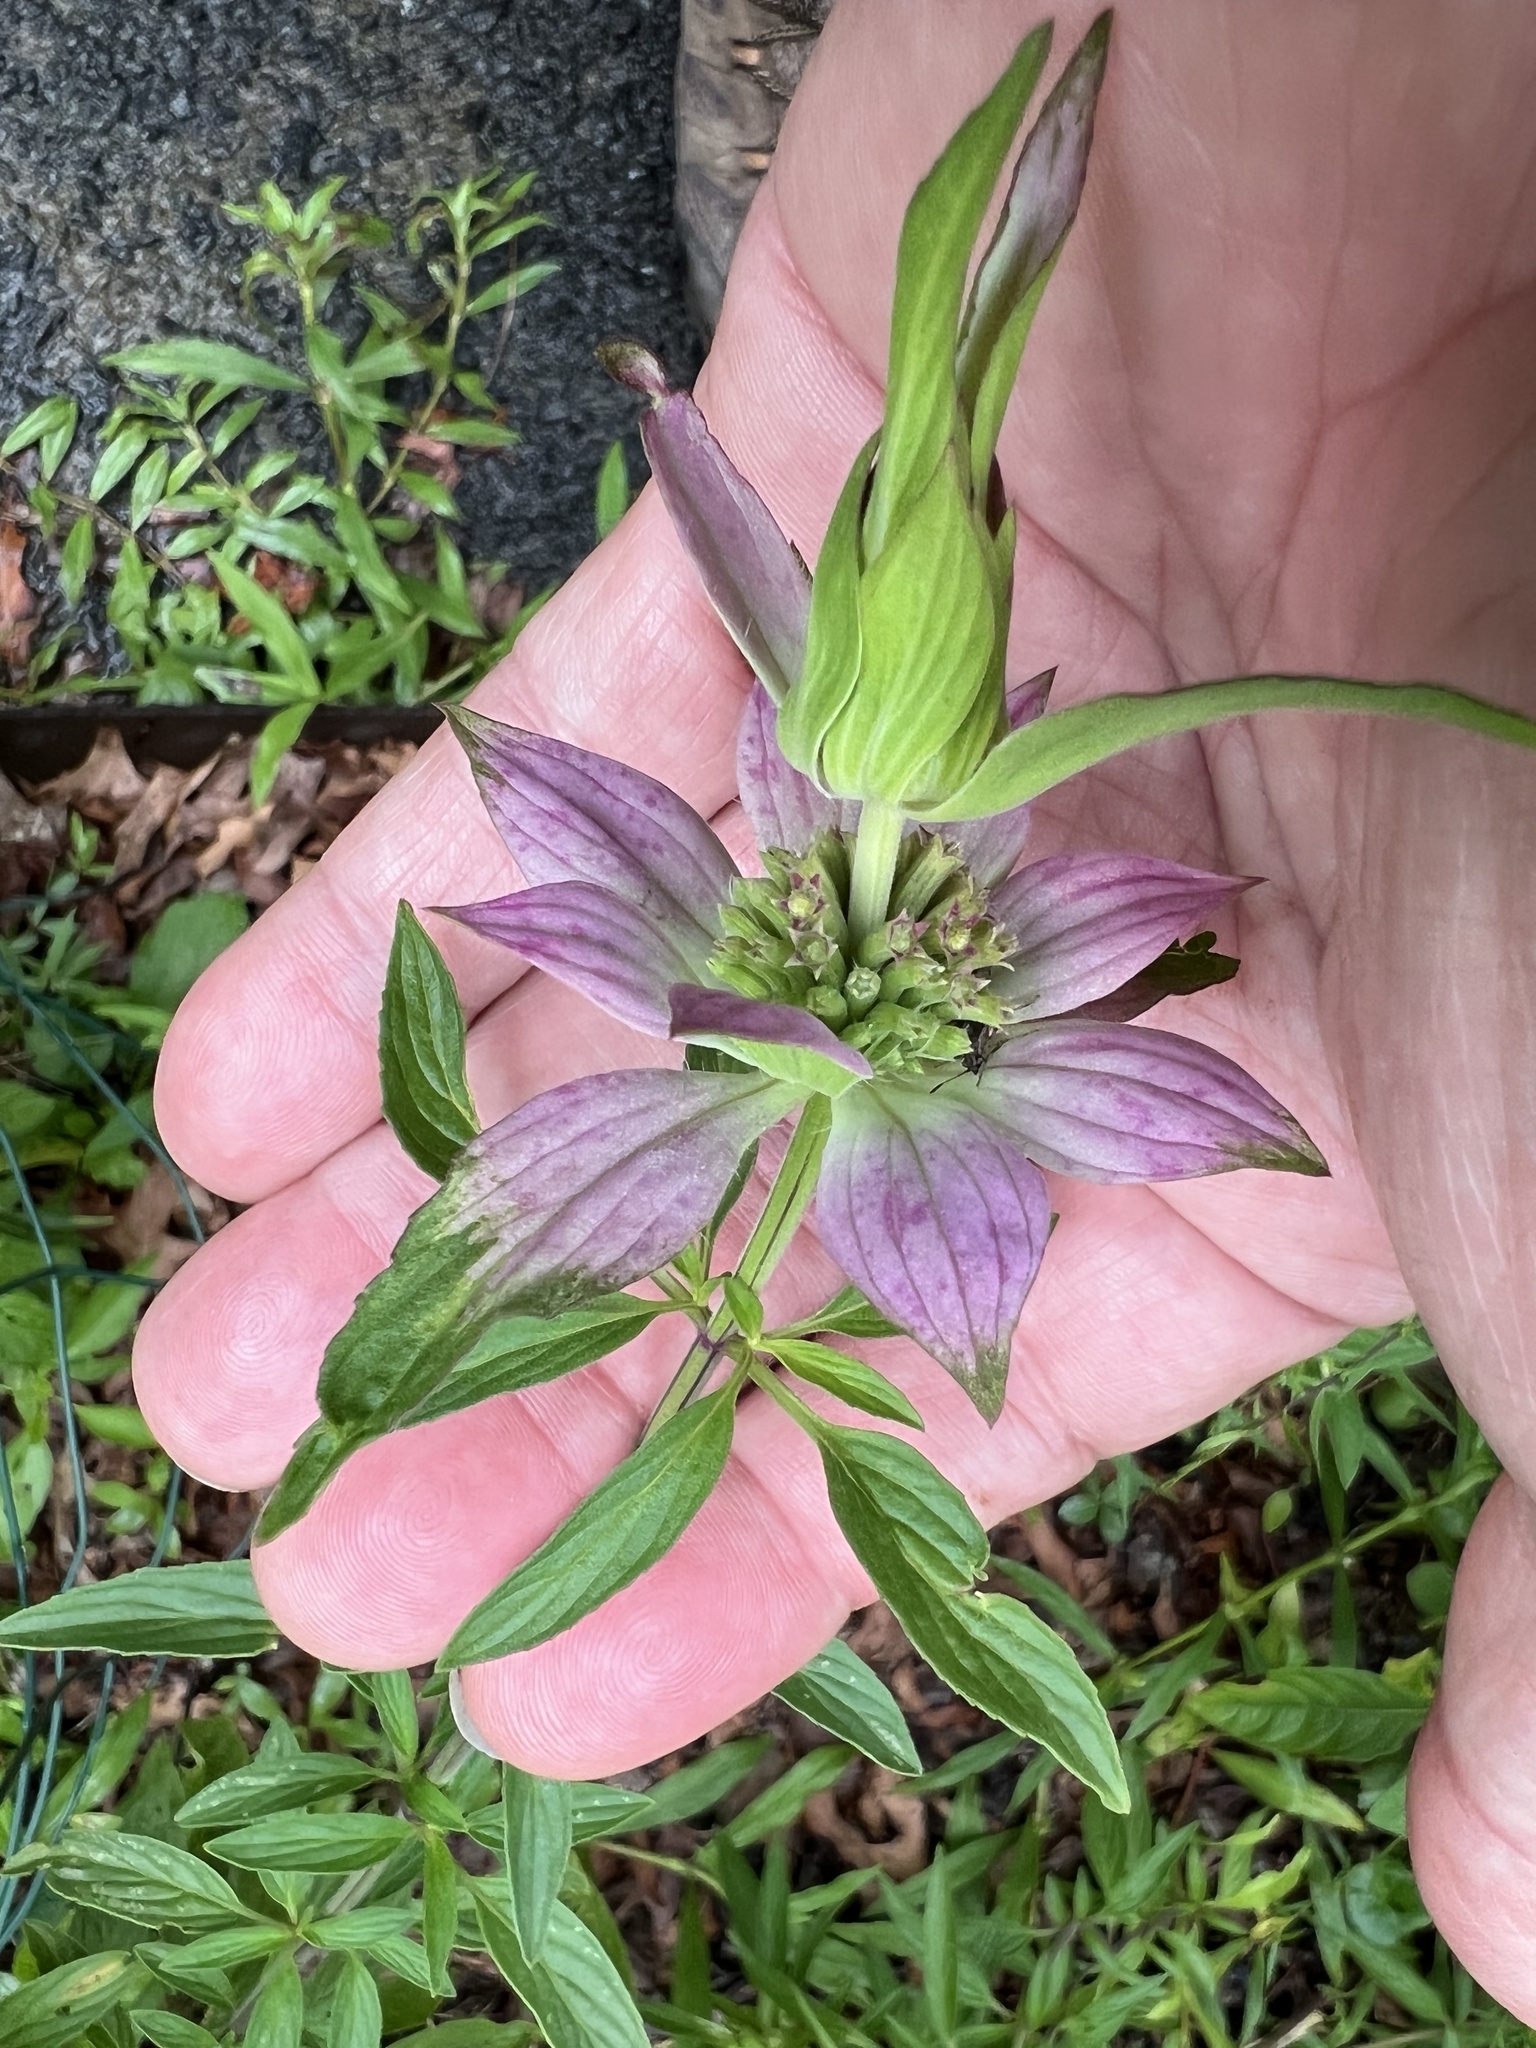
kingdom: Plantae
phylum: Tracheophyta
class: Magnoliopsida
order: Lamiales
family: Lamiaceae
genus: Monarda
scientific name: Monarda punctata
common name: Dotted monarda
